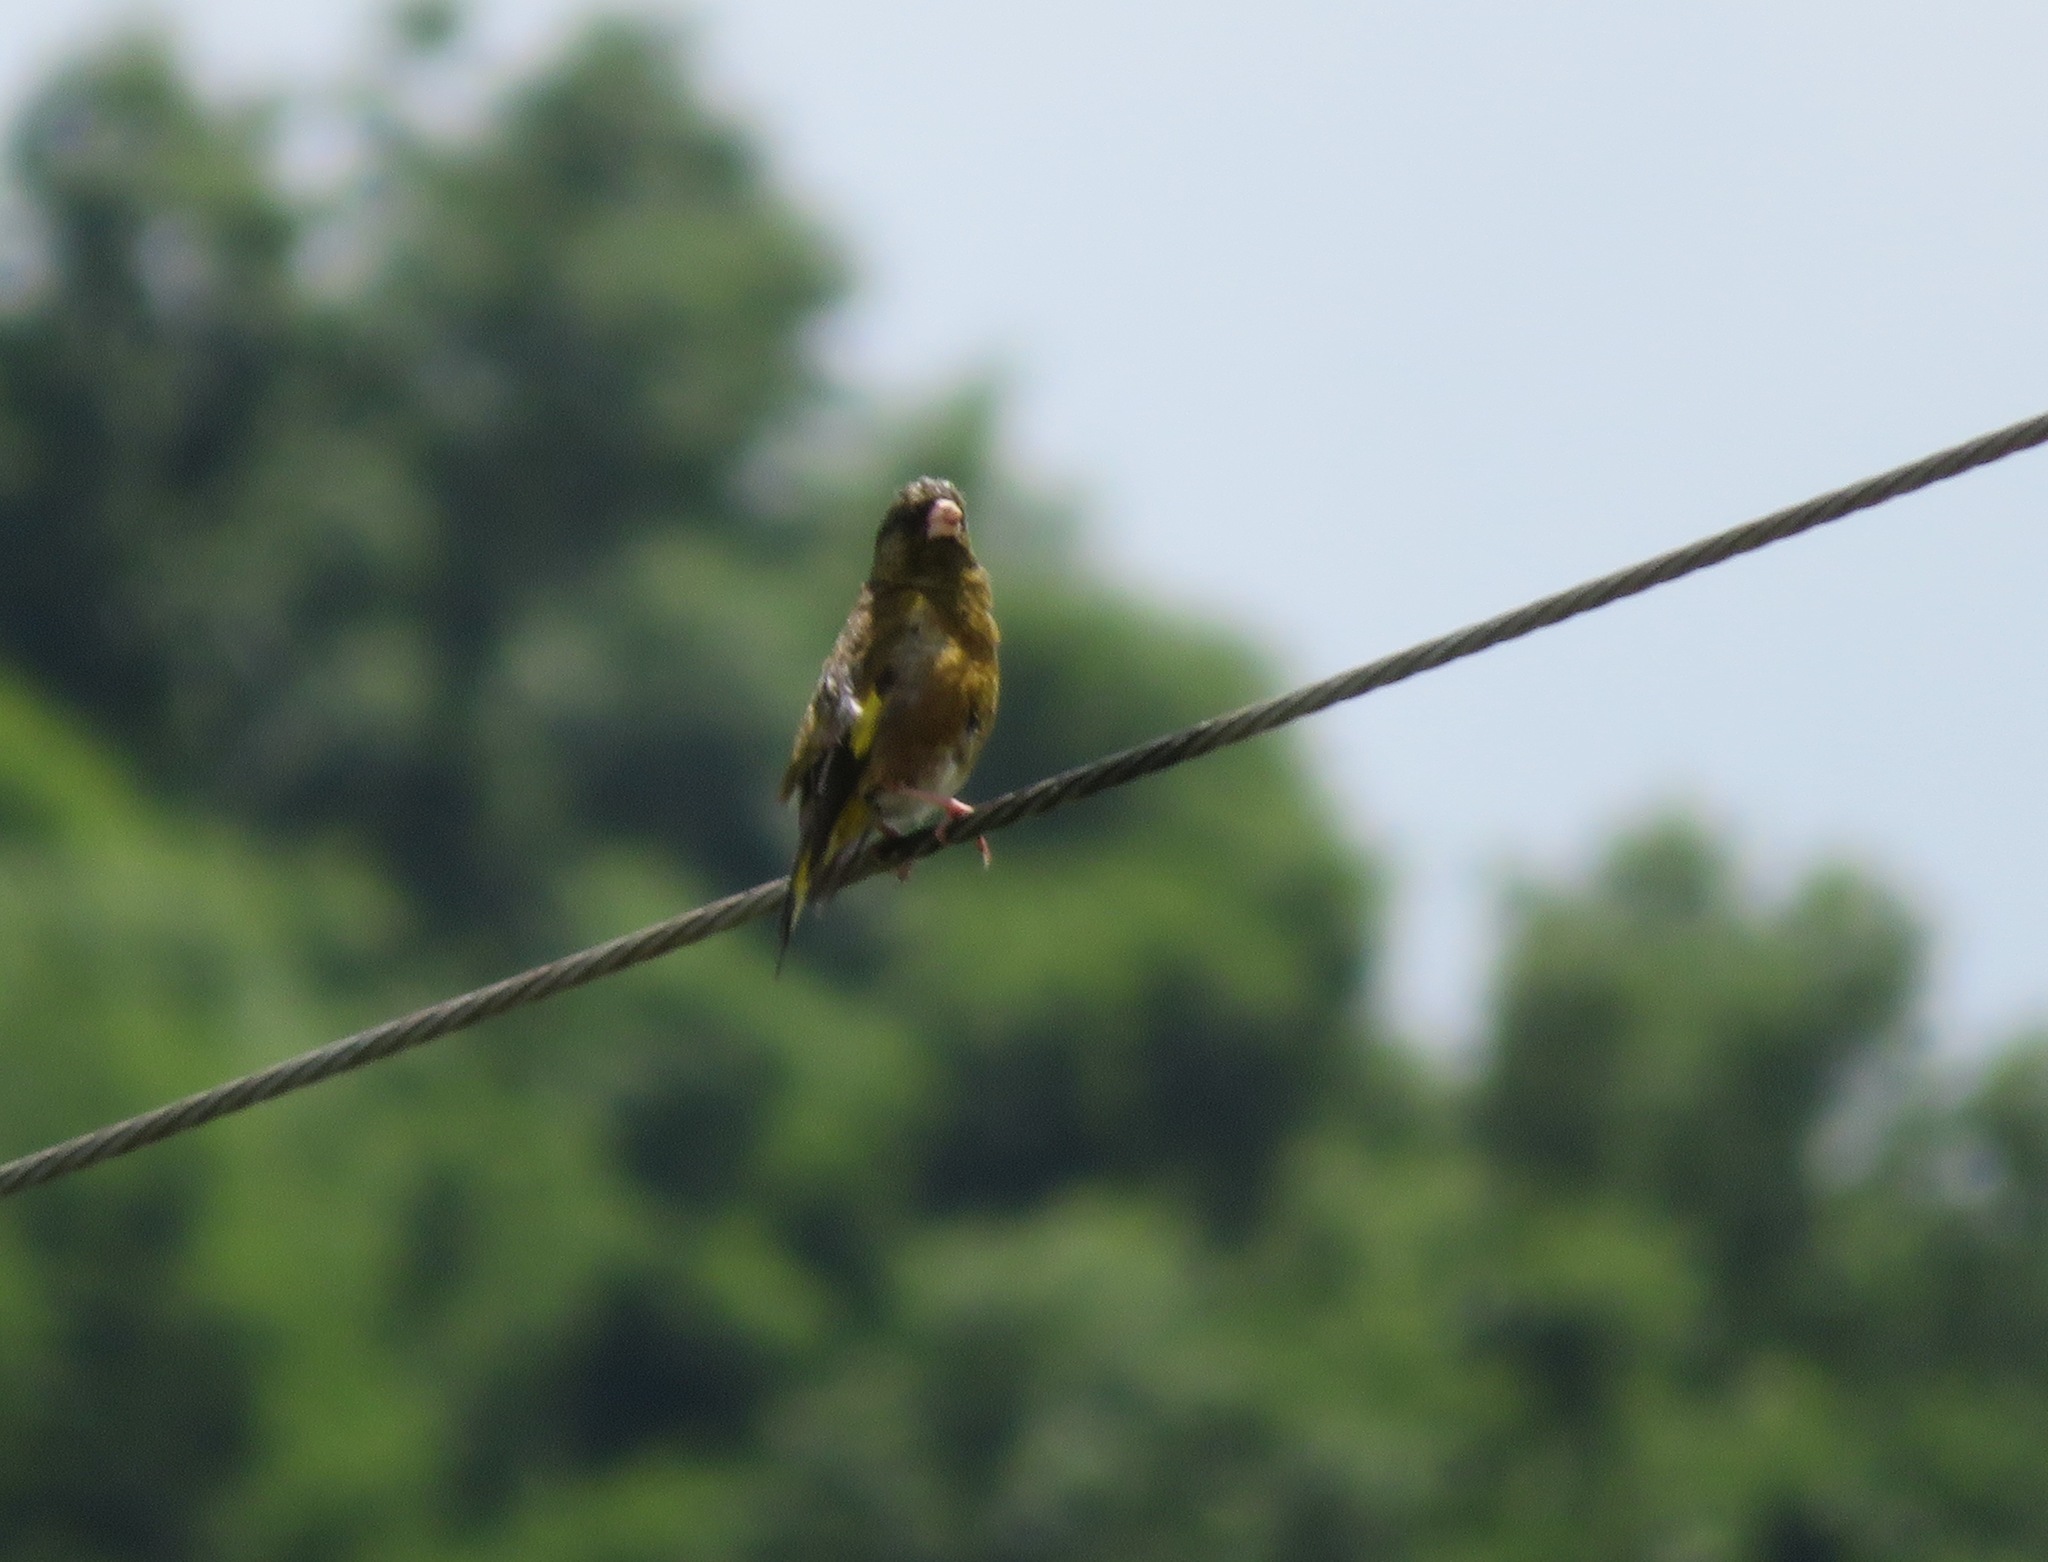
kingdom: Plantae
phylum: Tracheophyta
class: Liliopsida
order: Poales
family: Poaceae
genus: Chloris
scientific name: Chloris sinica
